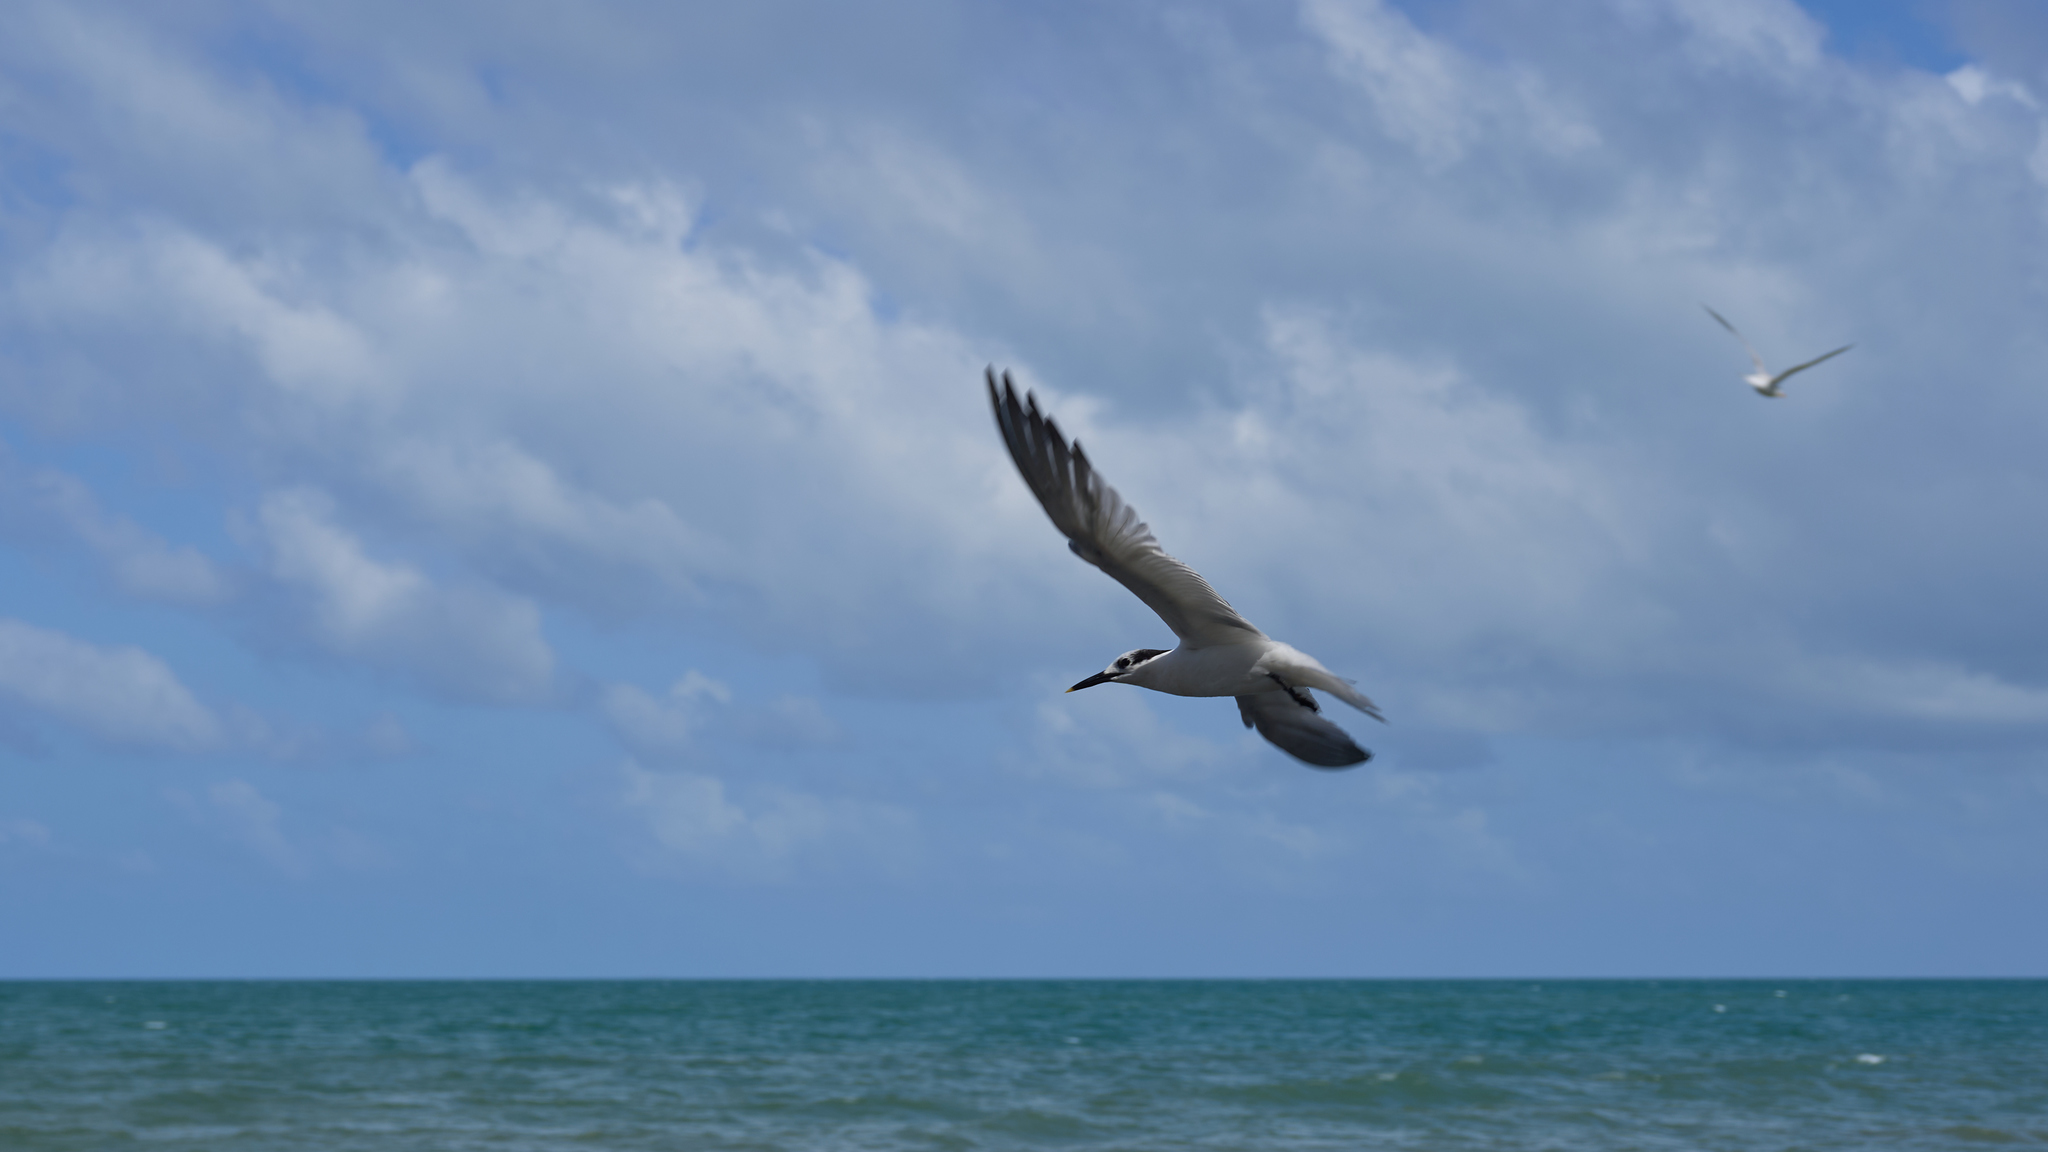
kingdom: Animalia
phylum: Chordata
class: Aves
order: Charadriiformes
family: Laridae
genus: Thalasseus
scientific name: Thalasseus sandvicensis
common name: Sandwich tern
